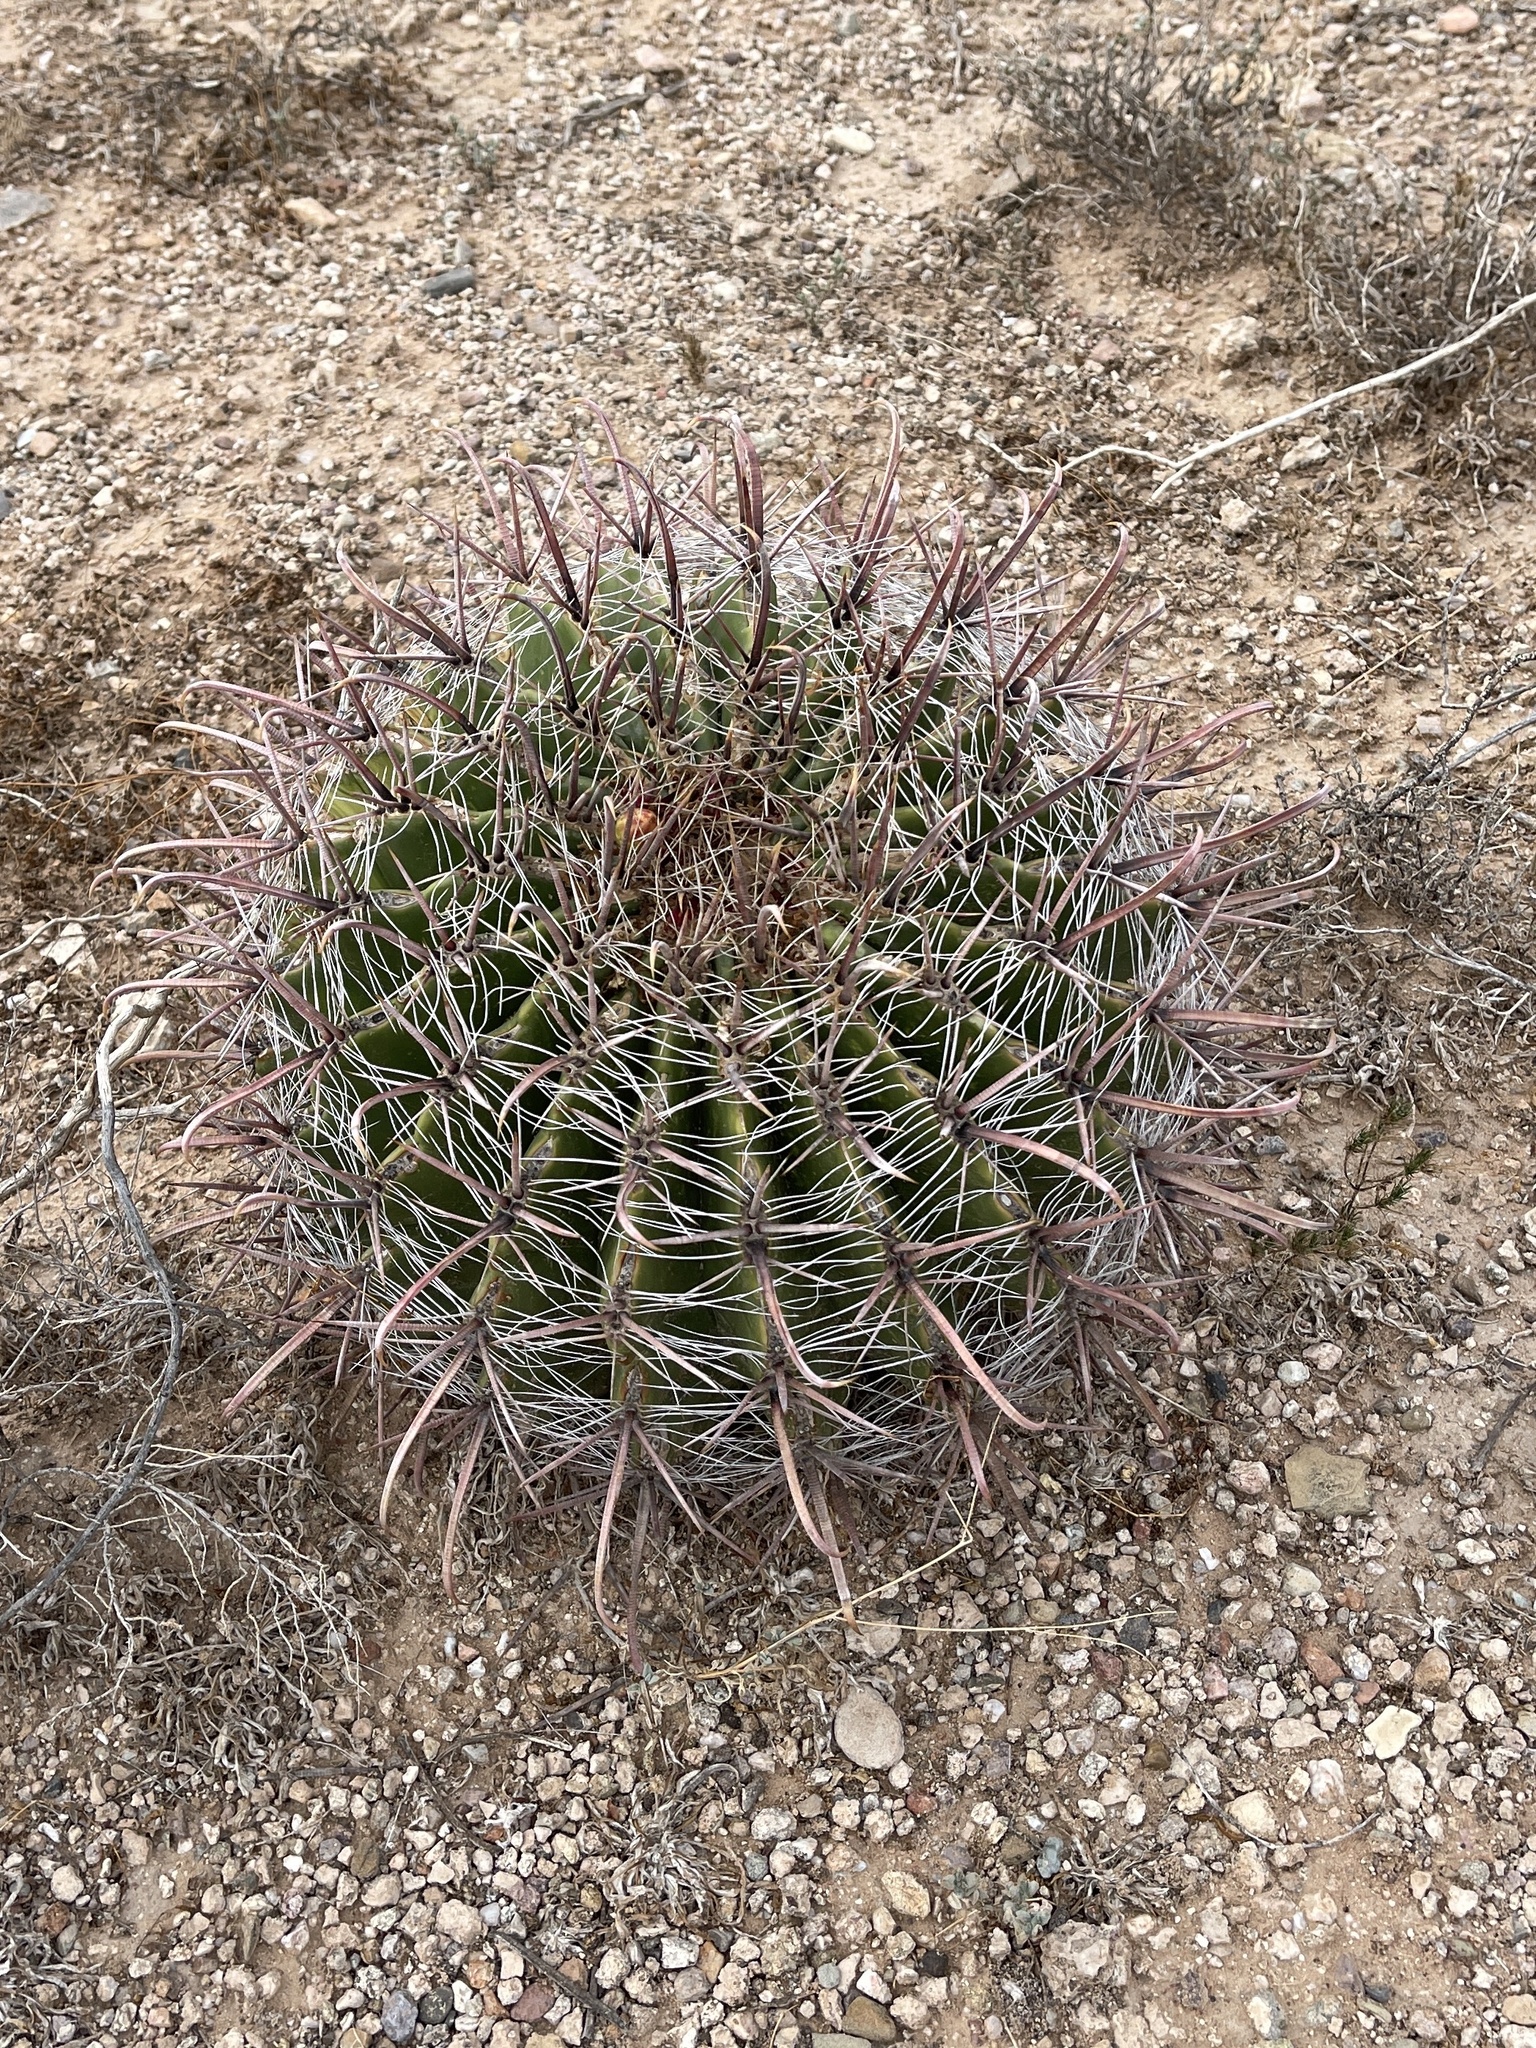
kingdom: Plantae
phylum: Tracheophyta
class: Magnoliopsida
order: Caryophyllales
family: Cactaceae
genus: Ferocactus
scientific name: Ferocactus wislizeni
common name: Candy barrel cactus
